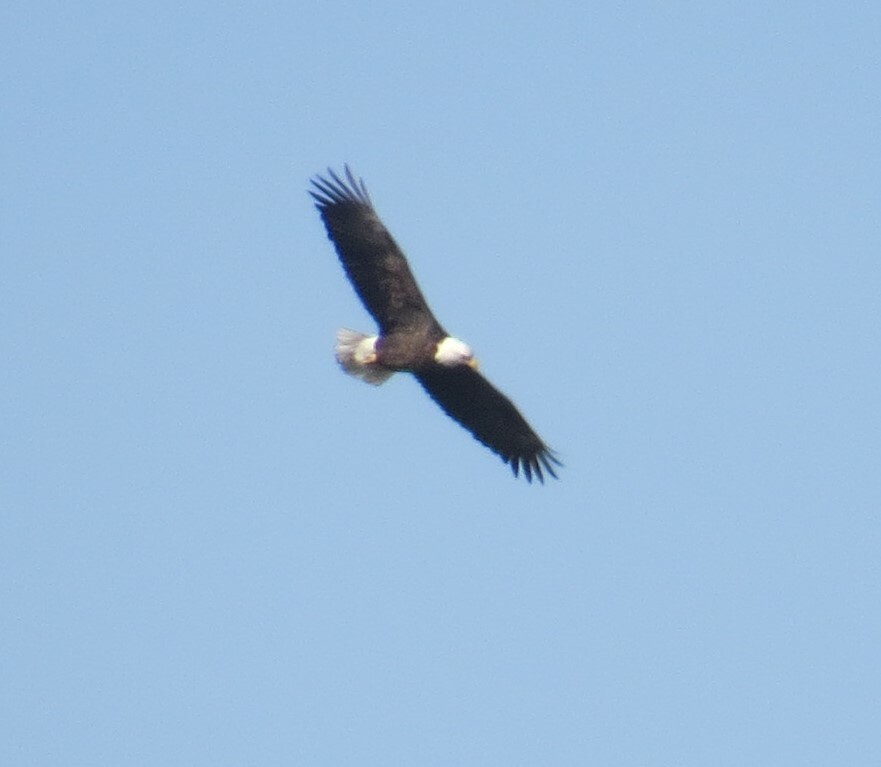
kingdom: Animalia
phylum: Chordata
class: Aves
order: Accipitriformes
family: Accipitridae
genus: Haliaeetus
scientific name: Haliaeetus leucocephalus
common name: Bald eagle
